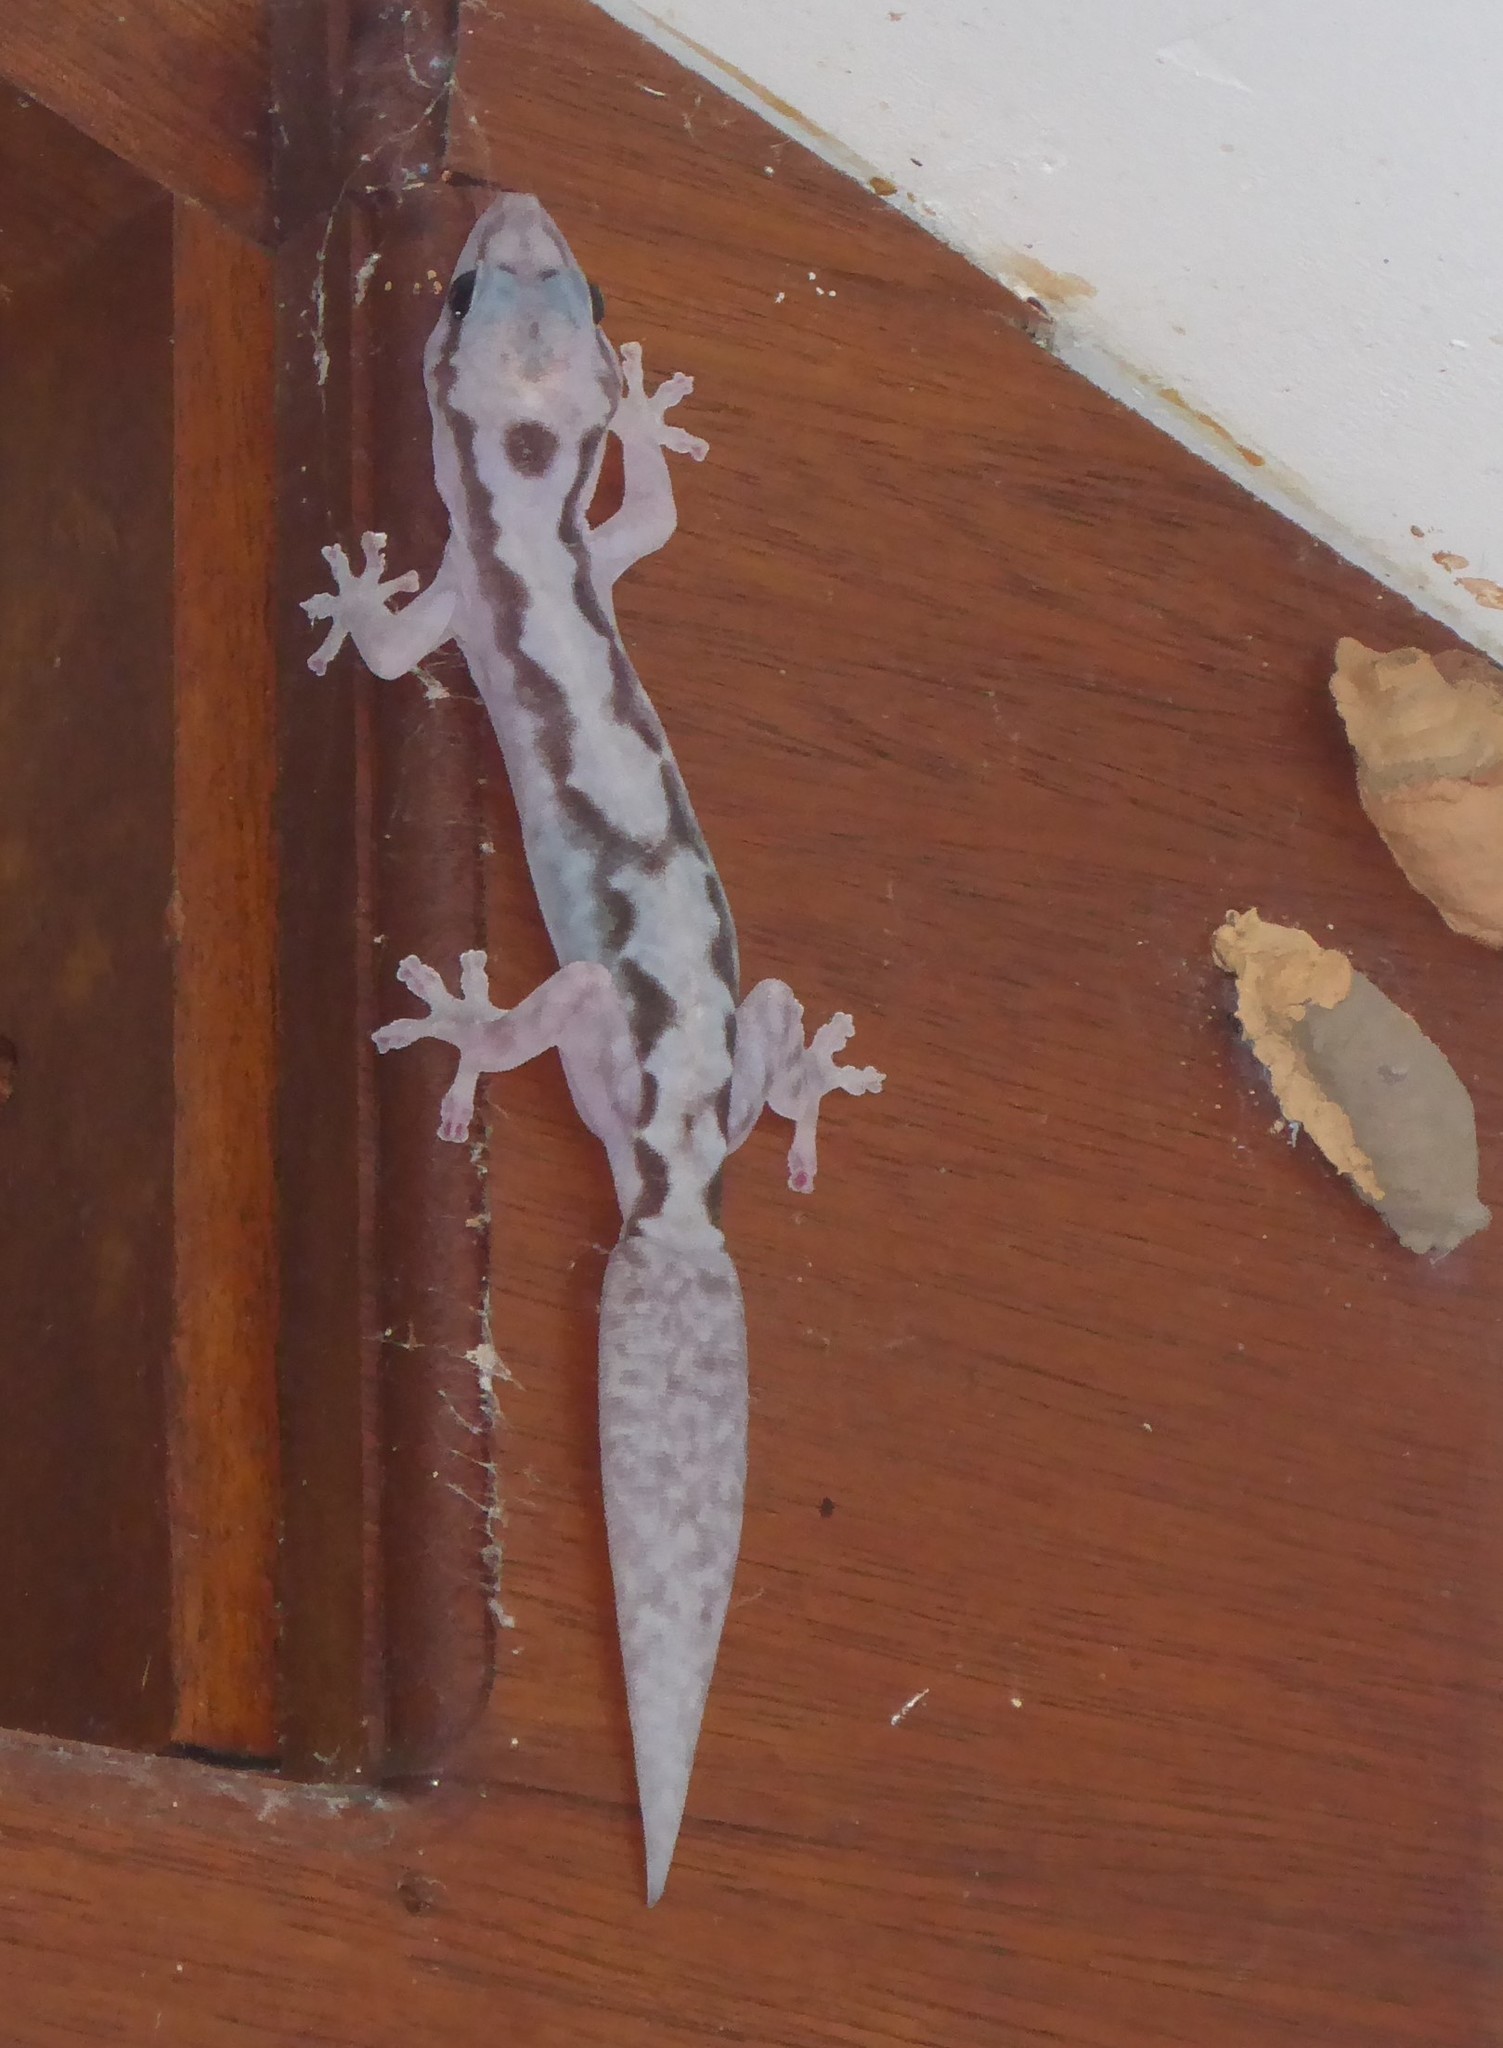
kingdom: Animalia
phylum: Chordata
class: Squamata
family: Diplodactylidae
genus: Nebulifera
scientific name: Nebulifera robusta
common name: Robust gecko
